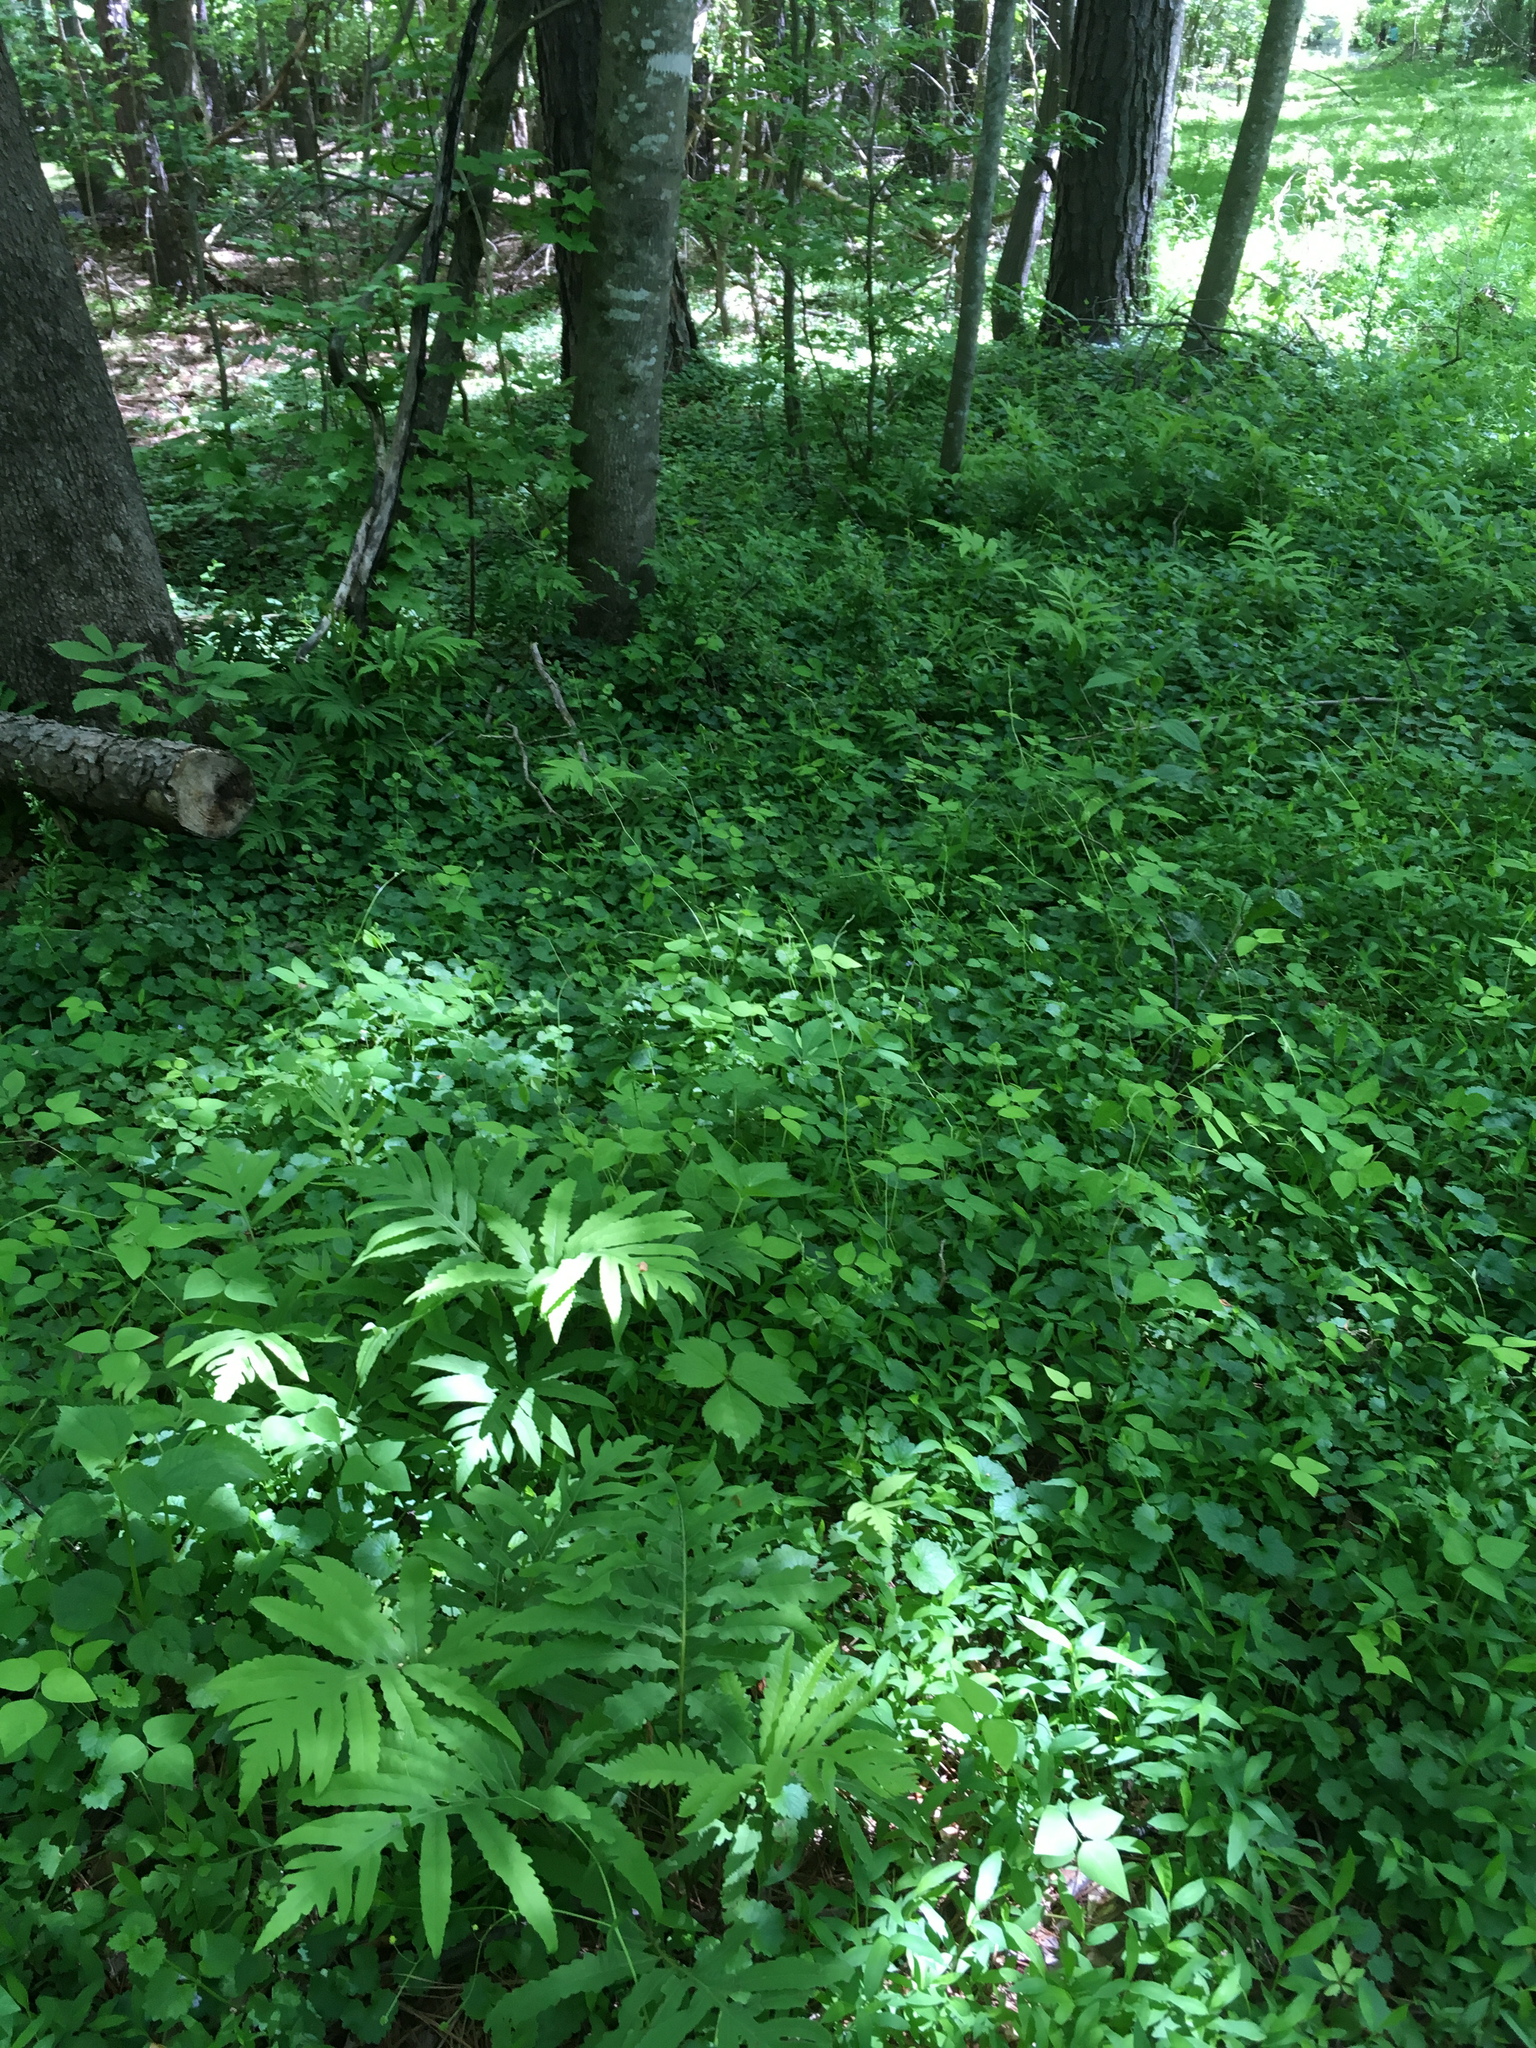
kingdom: Plantae
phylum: Tracheophyta
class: Polypodiopsida
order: Polypodiales
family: Onocleaceae
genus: Onoclea
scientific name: Onoclea sensibilis
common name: Sensitive fern
